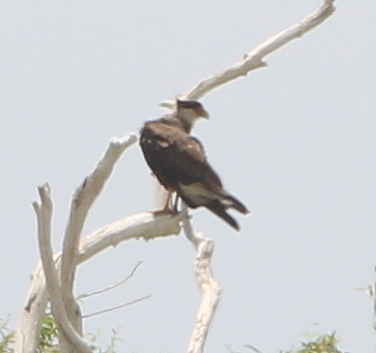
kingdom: Animalia
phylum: Chordata
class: Aves
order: Falconiformes
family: Falconidae
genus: Caracara
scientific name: Caracara plancus
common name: Southern caracara
